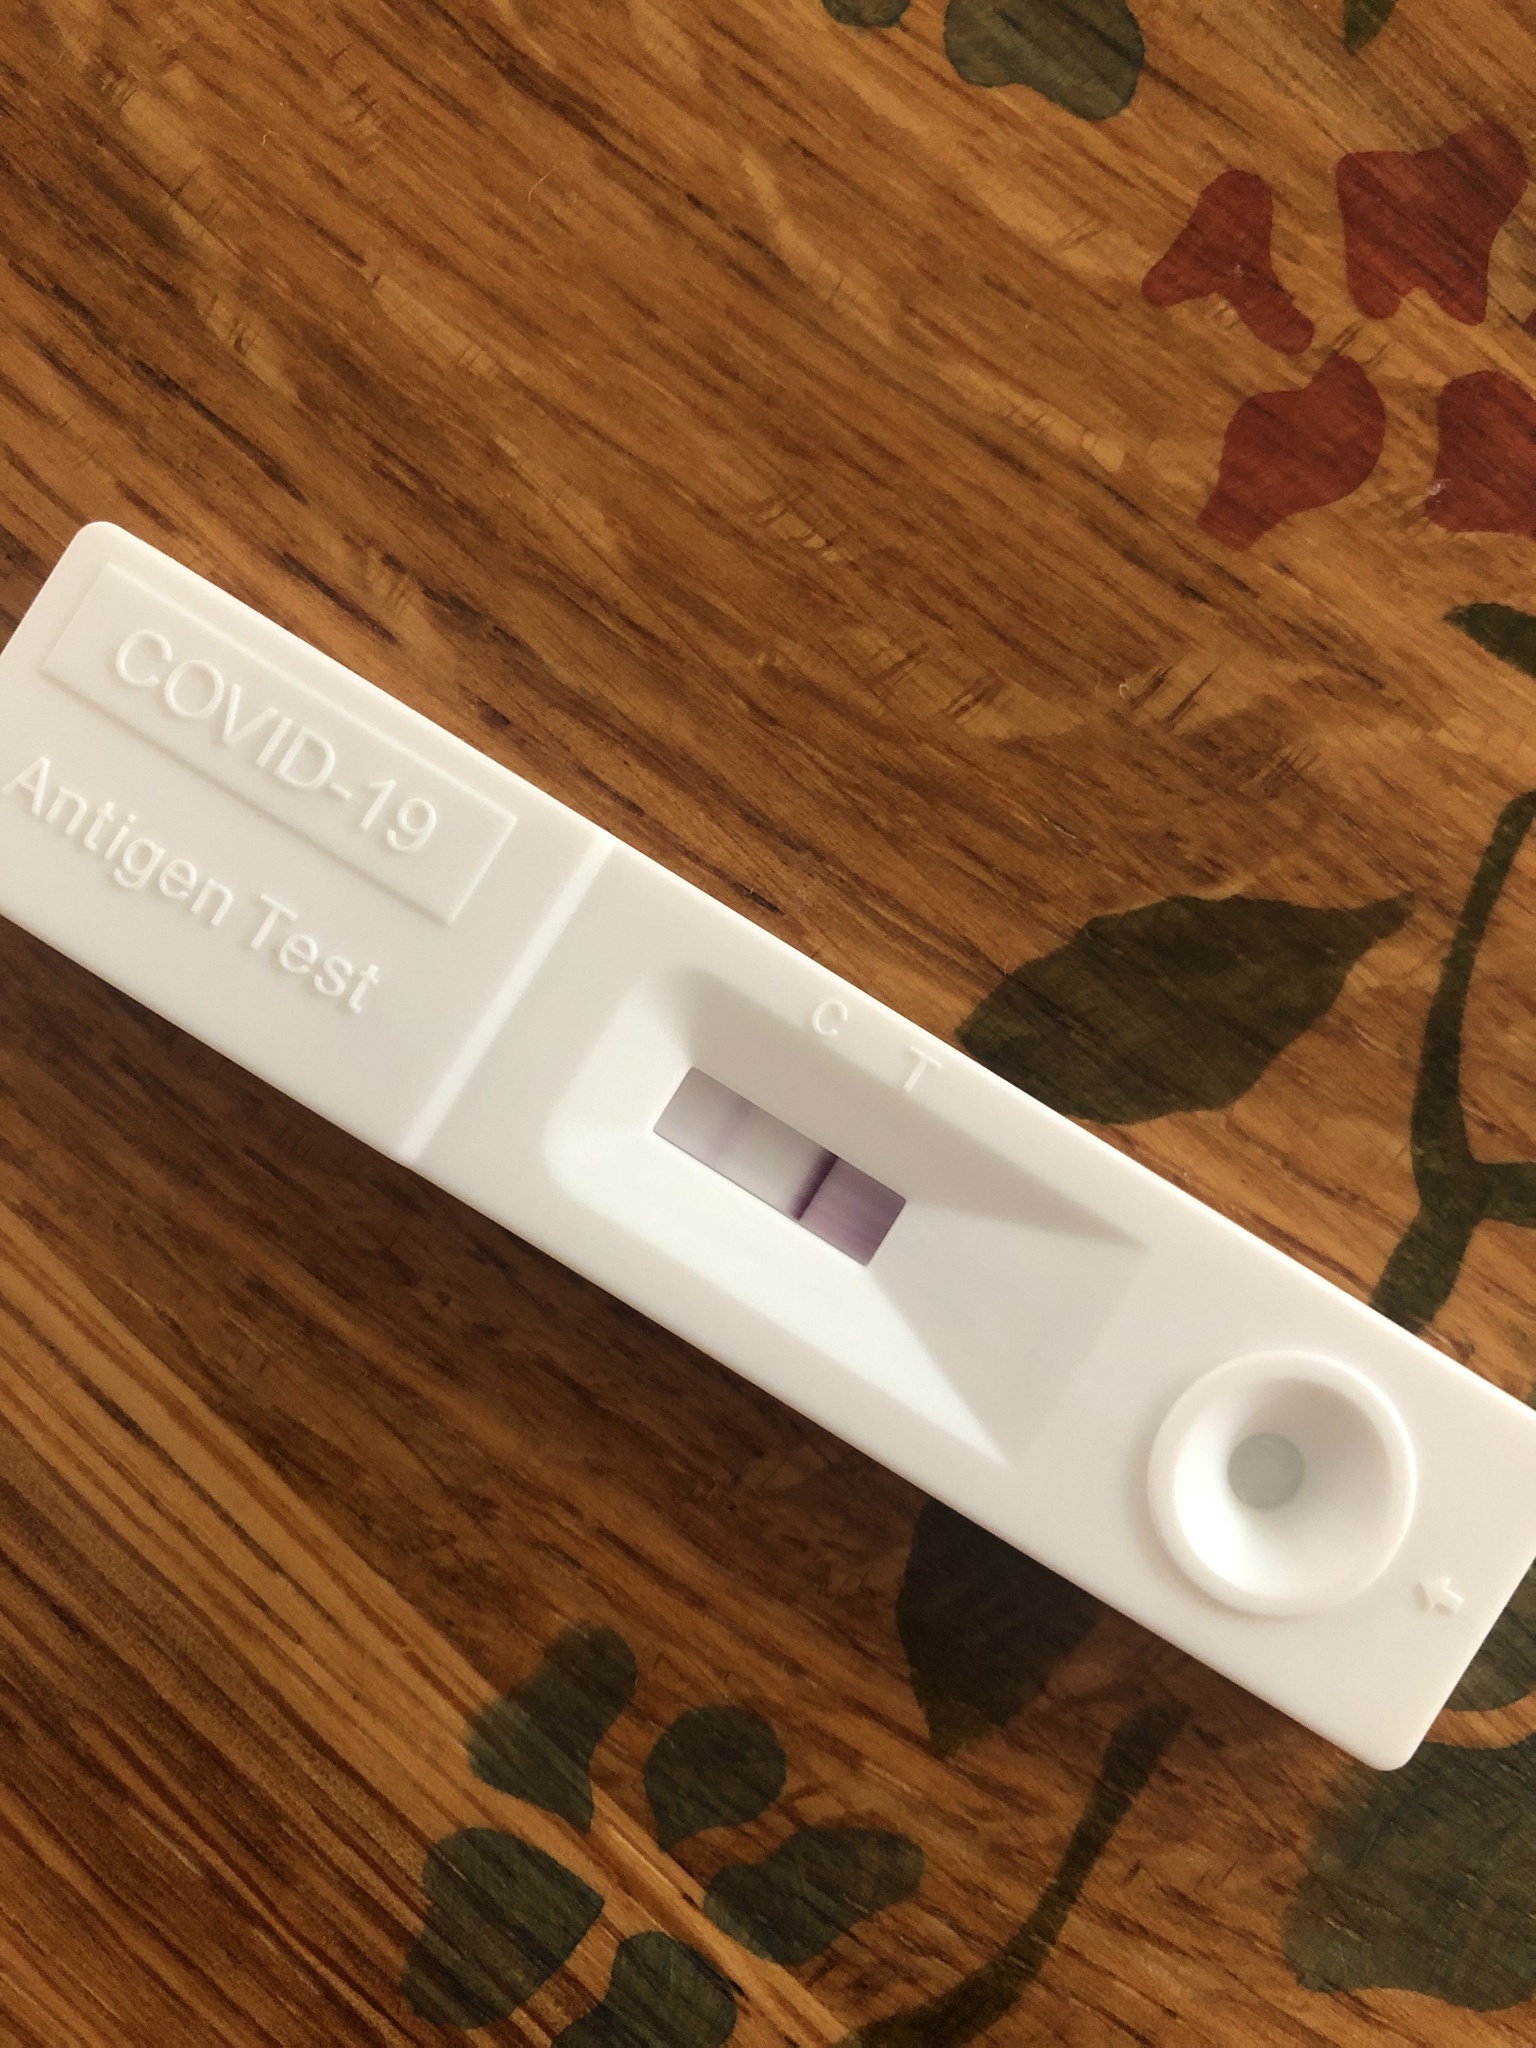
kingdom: Viruses
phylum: Pisuviricota
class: Pisoniviricetes
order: Nidovirales
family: Coronaviridae
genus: Betacoronavirus
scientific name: Betacoronavirus
